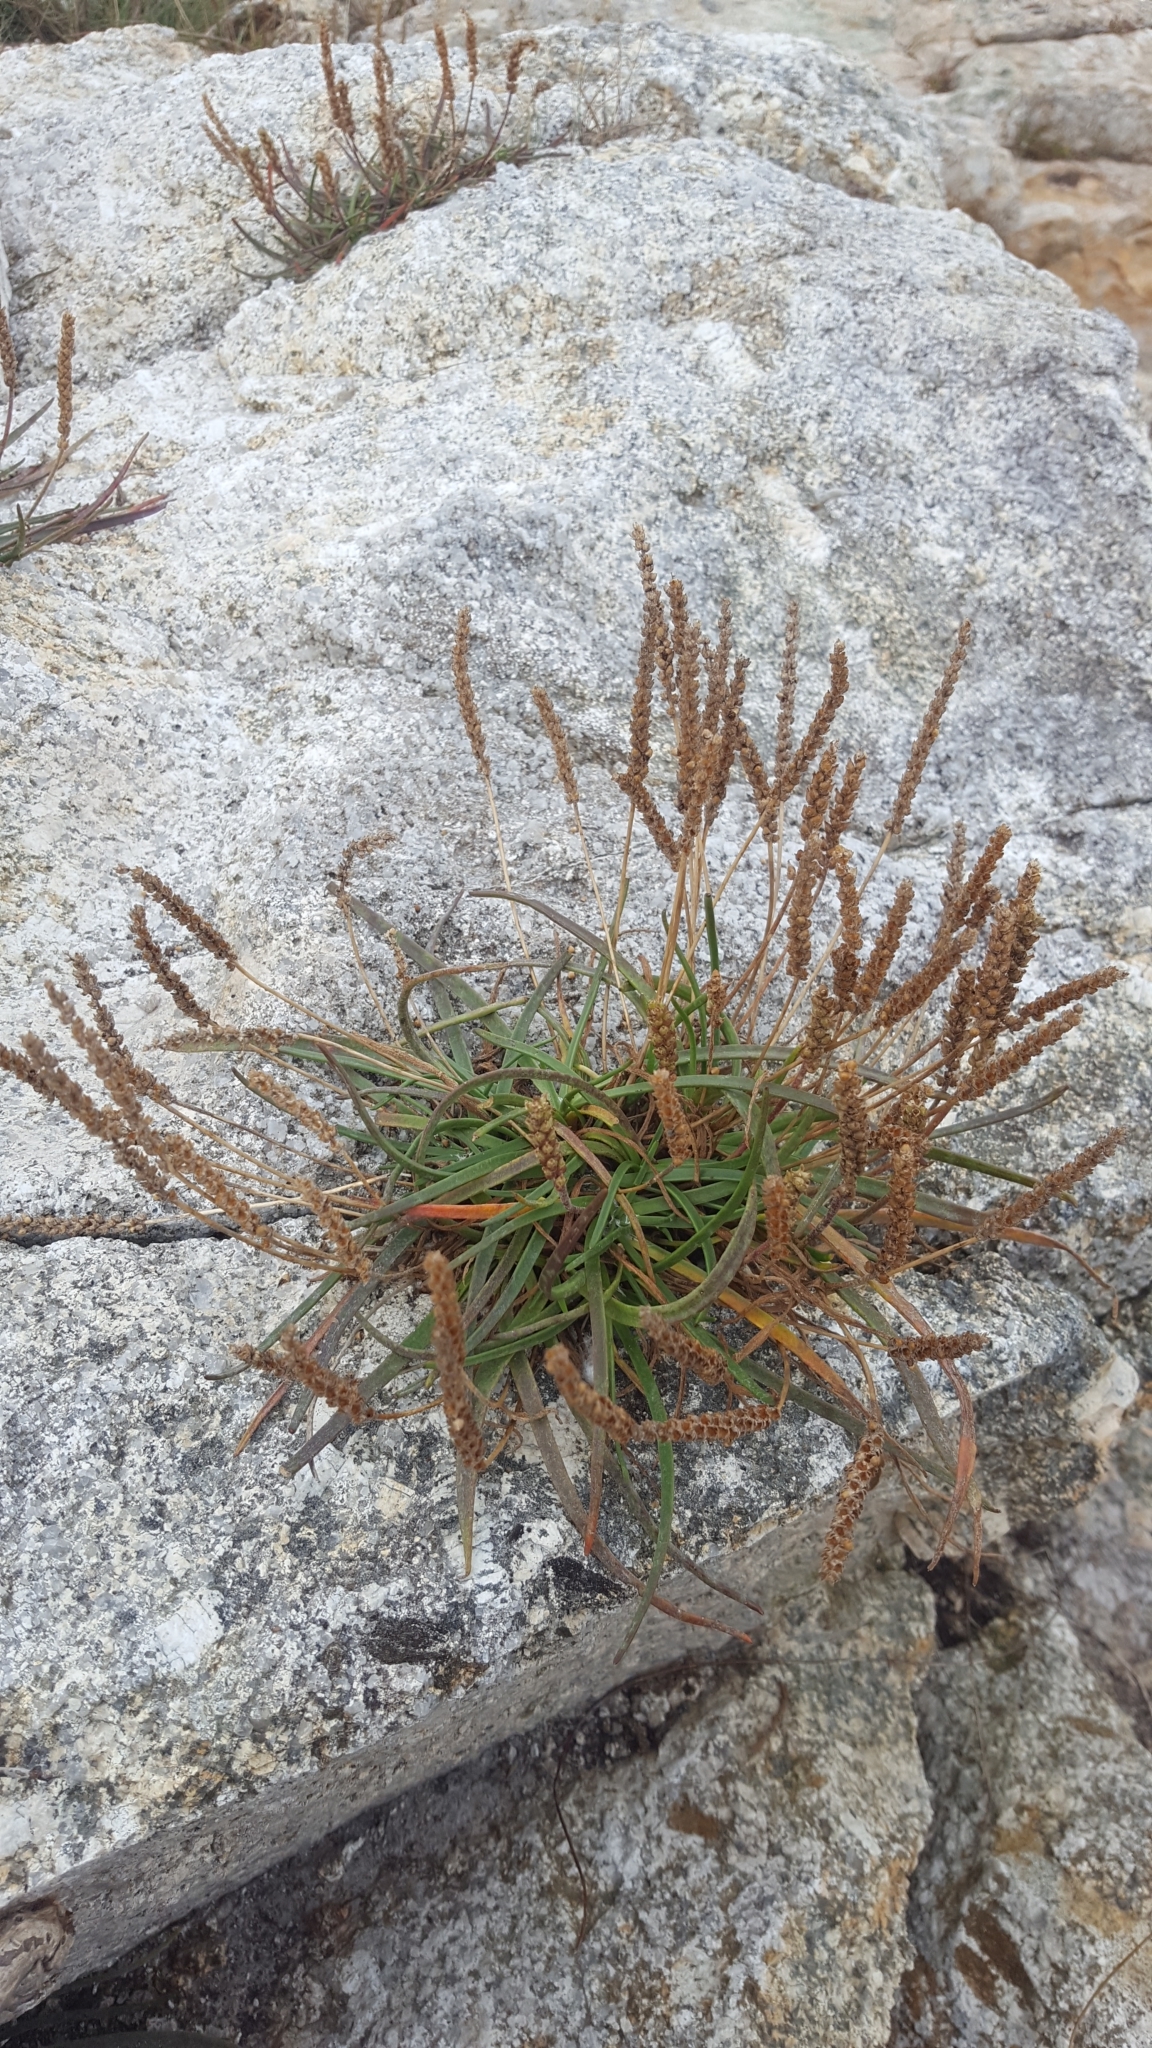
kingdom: Plantae
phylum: Tracheophyta
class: Magnoliopsida
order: Lamiales
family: Plantaginaceae
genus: Plantago
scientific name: Plantago maritima
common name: Sea plantain
